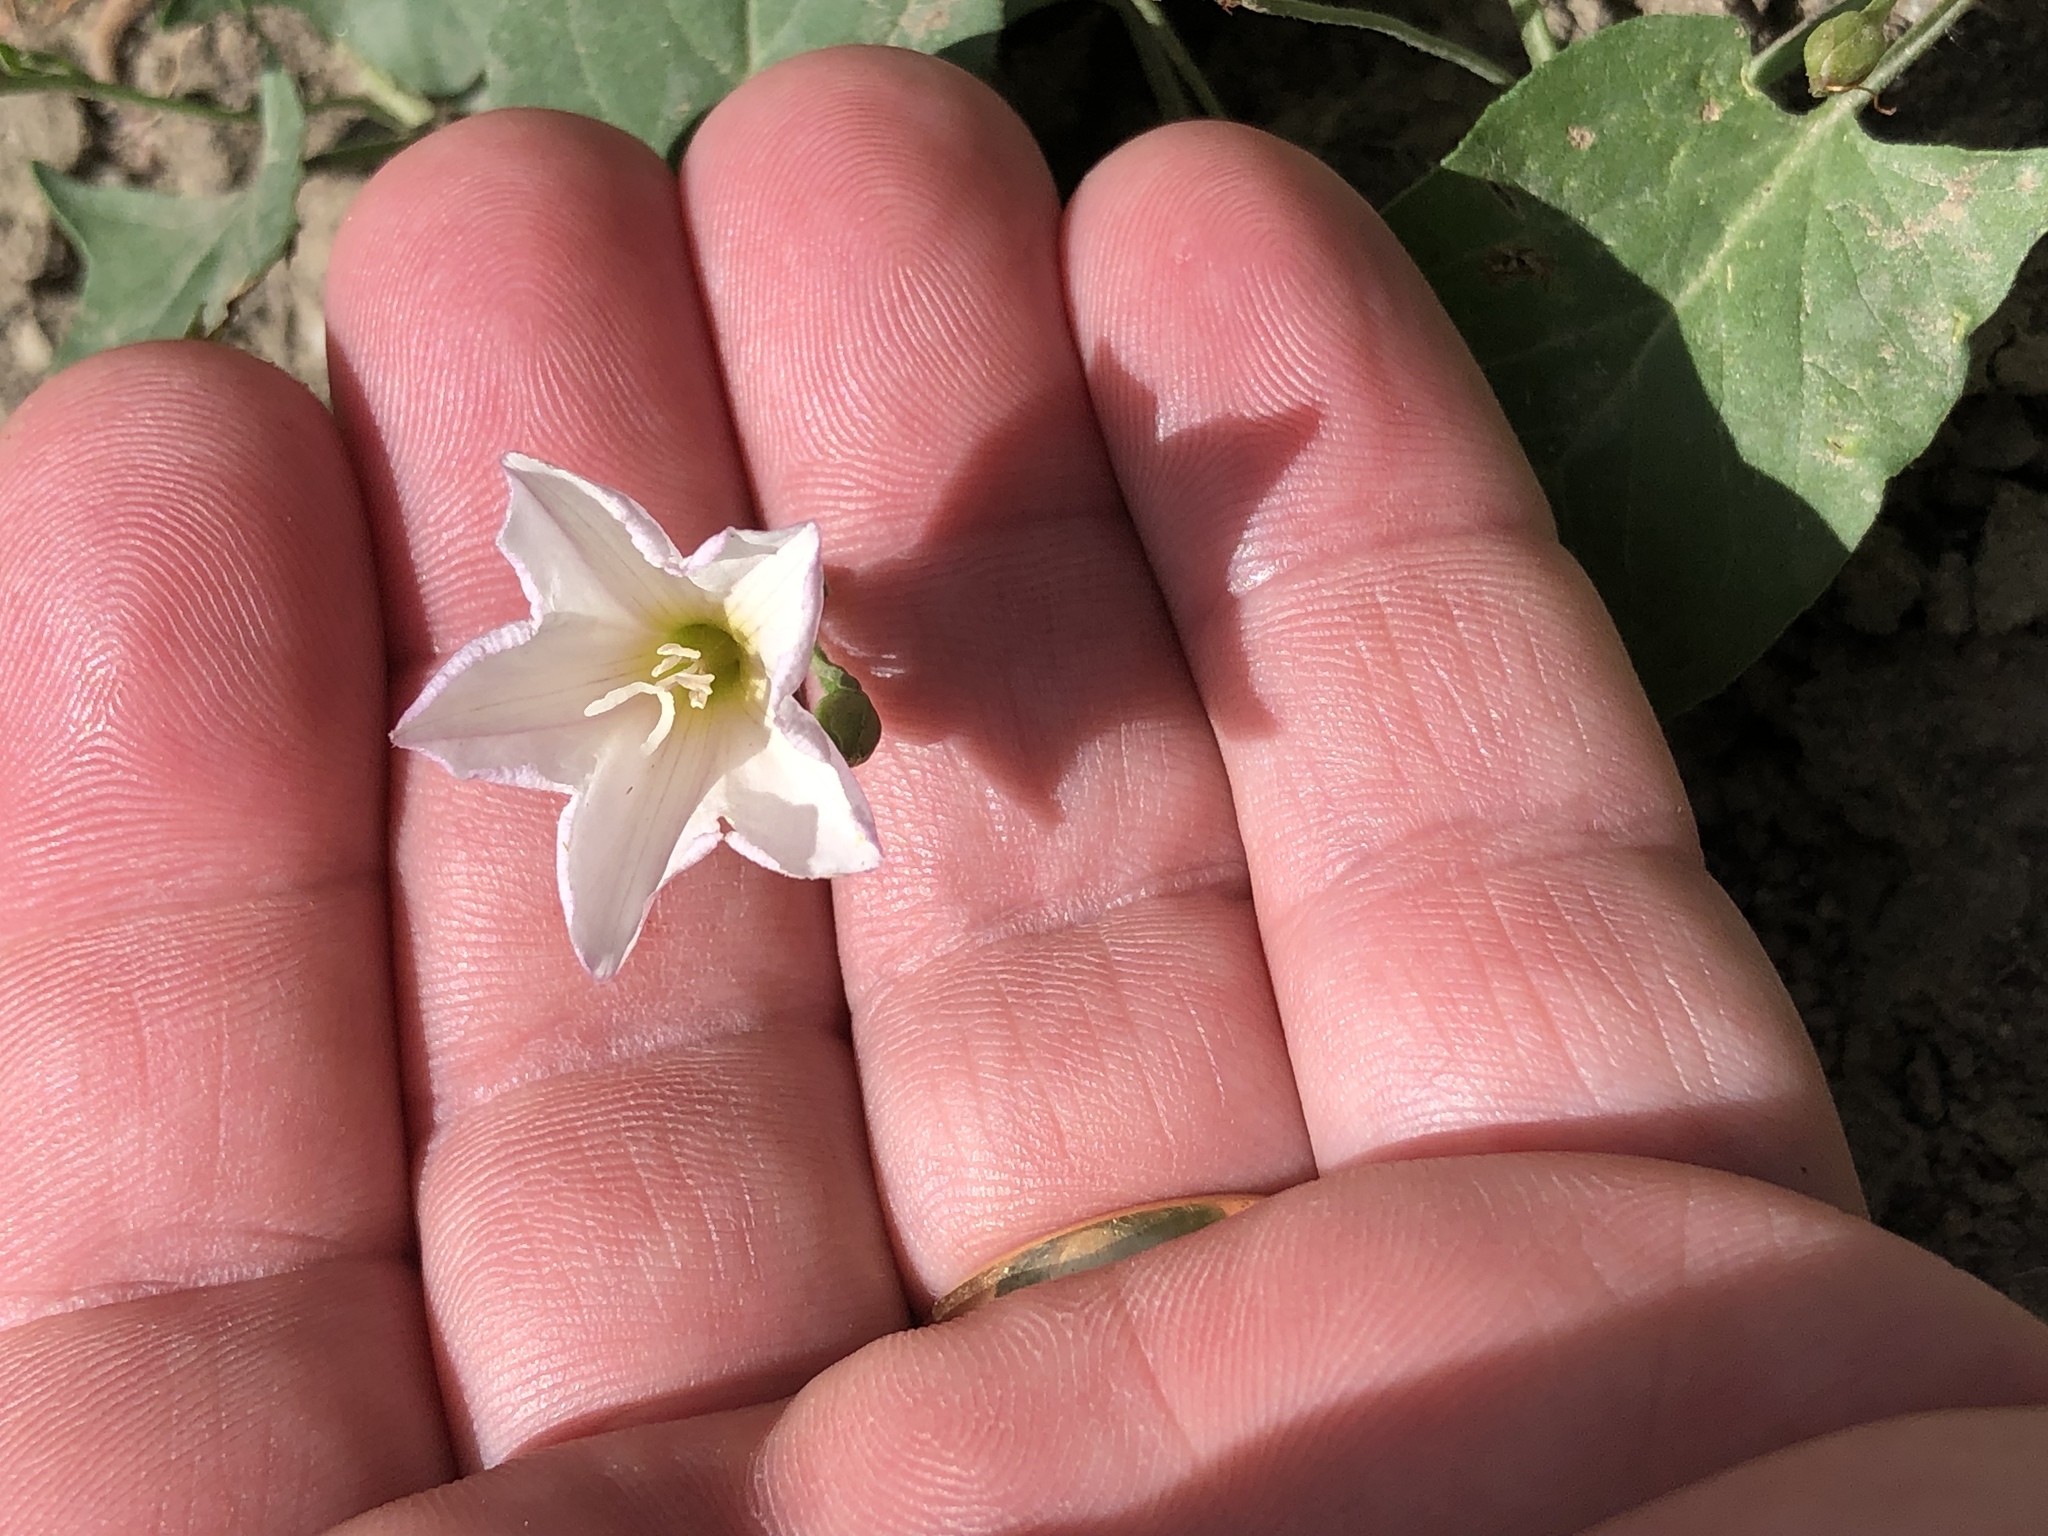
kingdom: Plantae
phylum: Tracheophyta
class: Magnoliopsida
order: Solanales
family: Convolvulaceae
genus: Convolvulus
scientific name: Convolvulus arvensis
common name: Field bindweed
